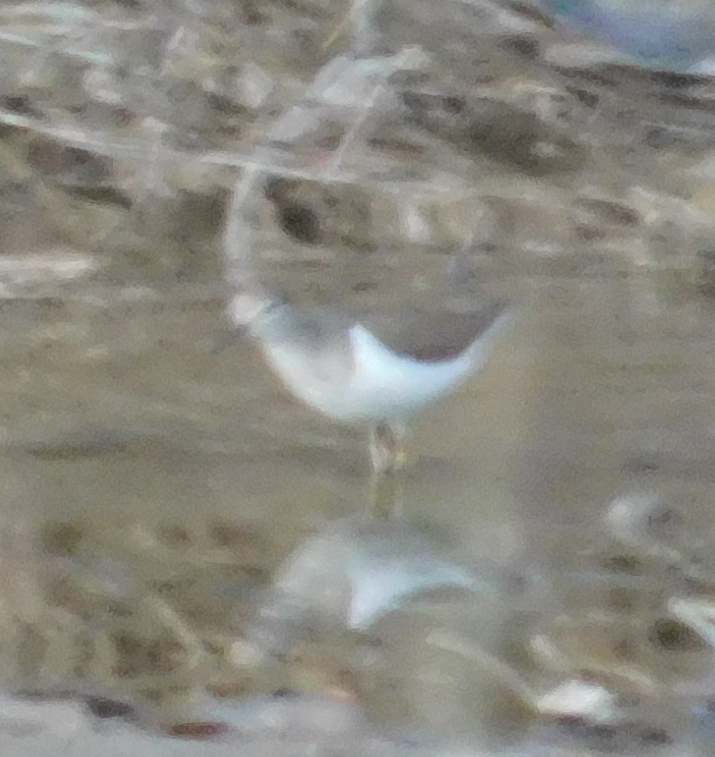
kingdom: Animalia
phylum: Chordata
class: Aves
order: Charadriiformes
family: Scolopacidae
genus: Actitis
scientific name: Actitis hypoleucos
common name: Common sandpiper
